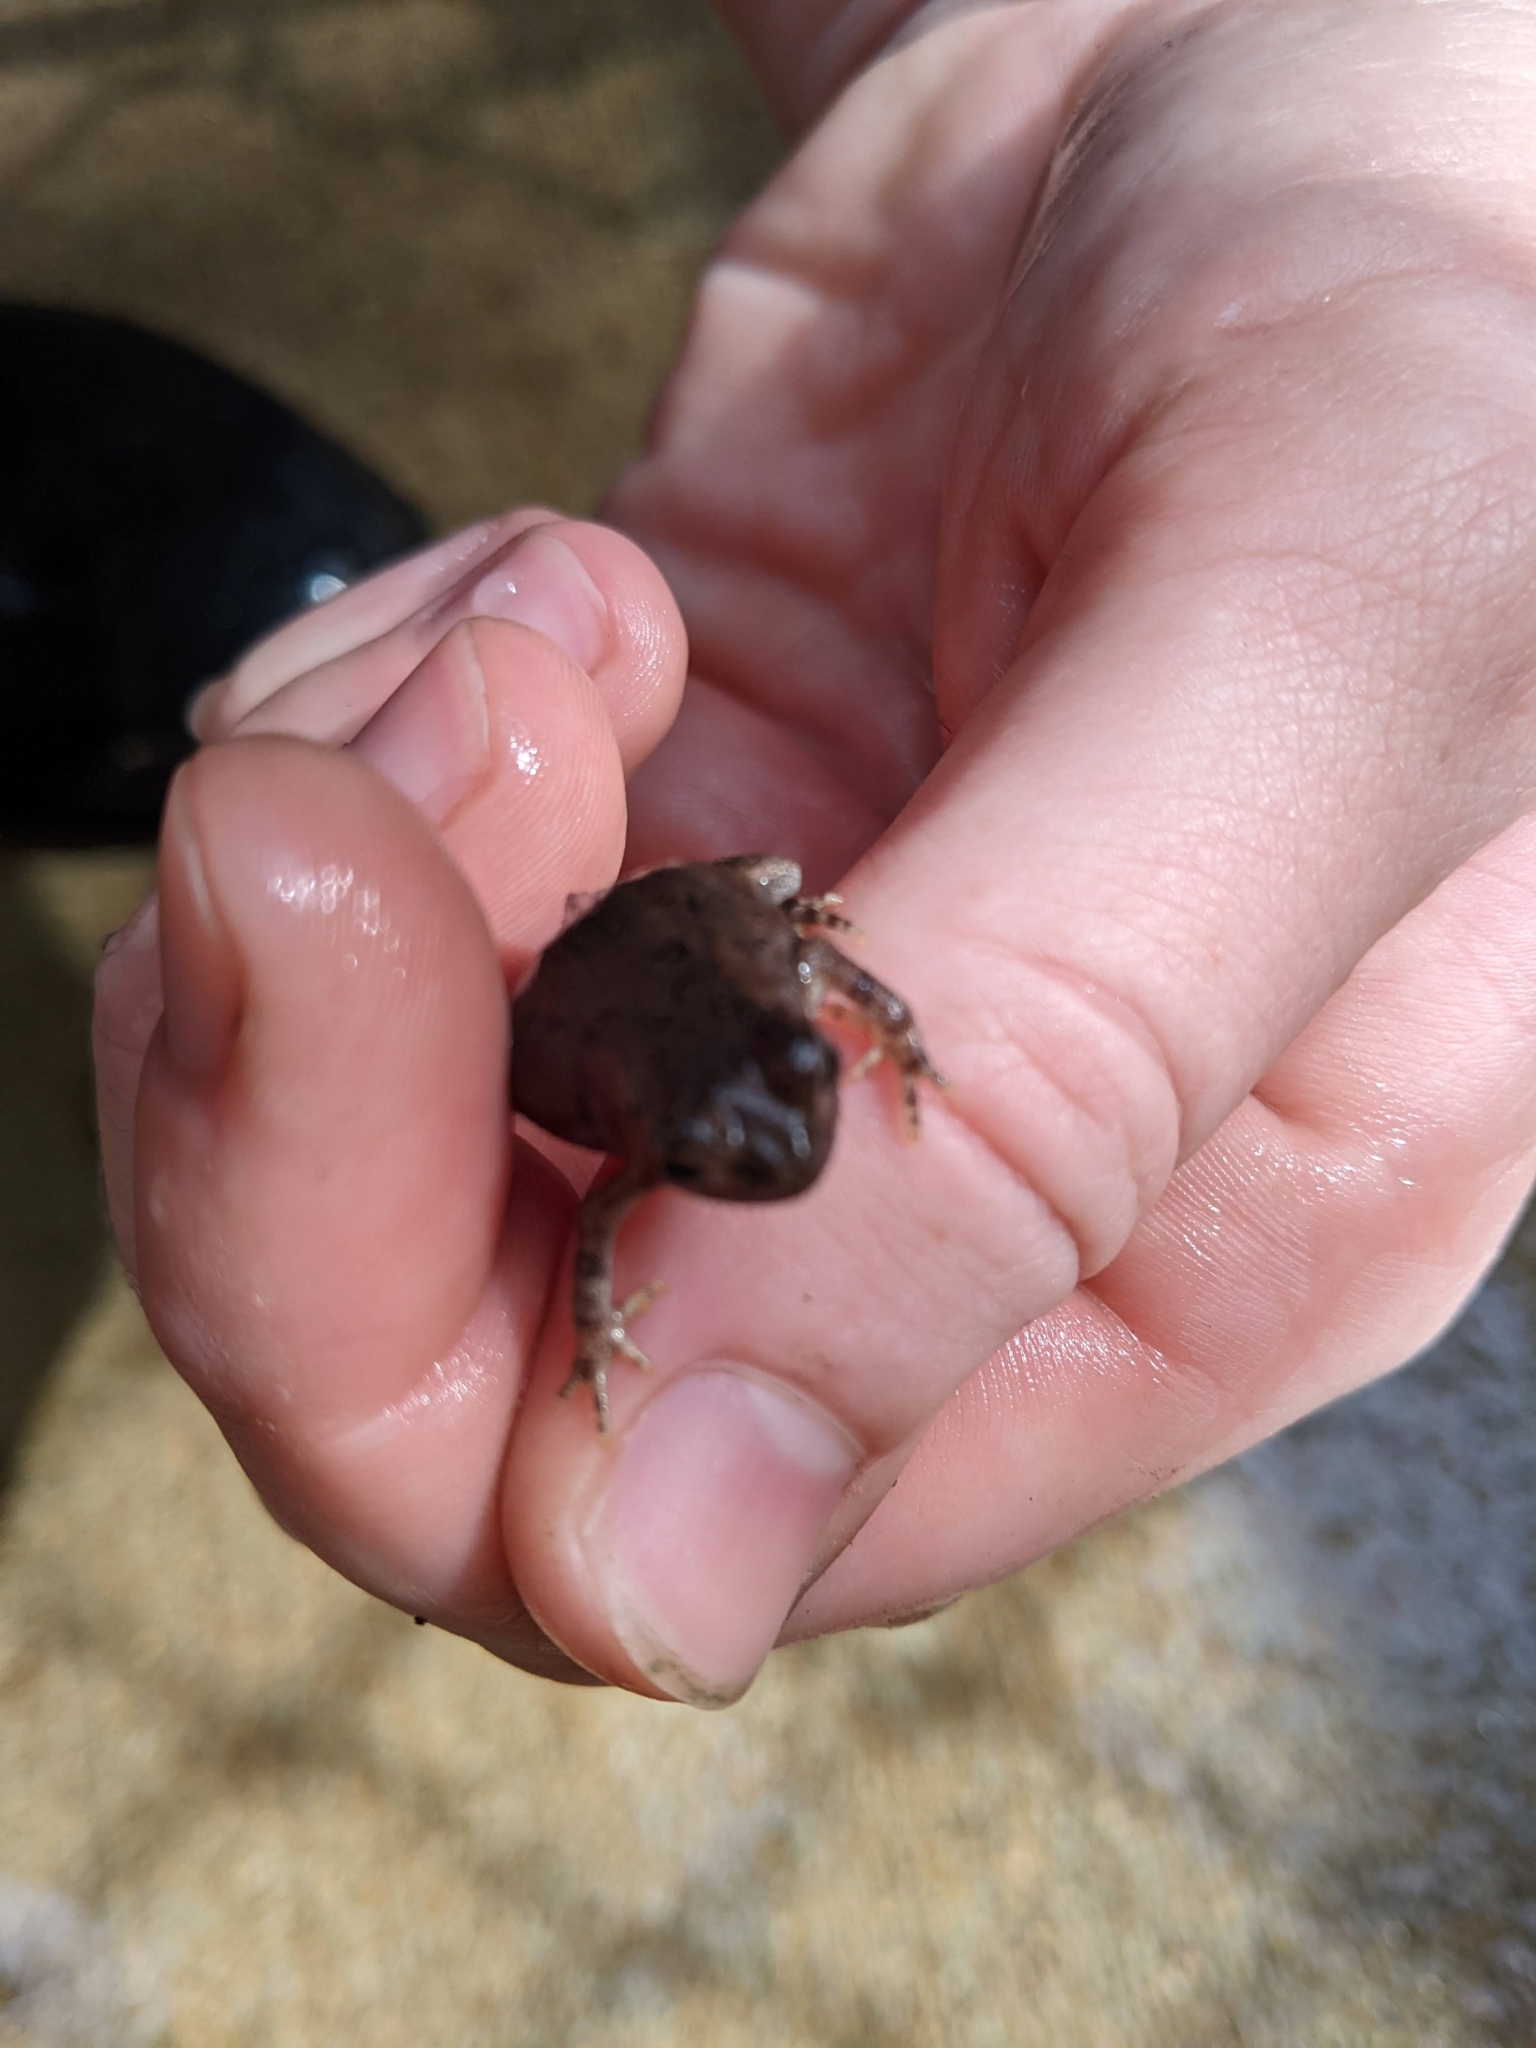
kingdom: Animalia
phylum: Chordata
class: Amphibia
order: Anura
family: Scaphiopodidae
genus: Scaphiopus
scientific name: Scaphiopus holbrookii
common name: Eastern spadefoot toad
